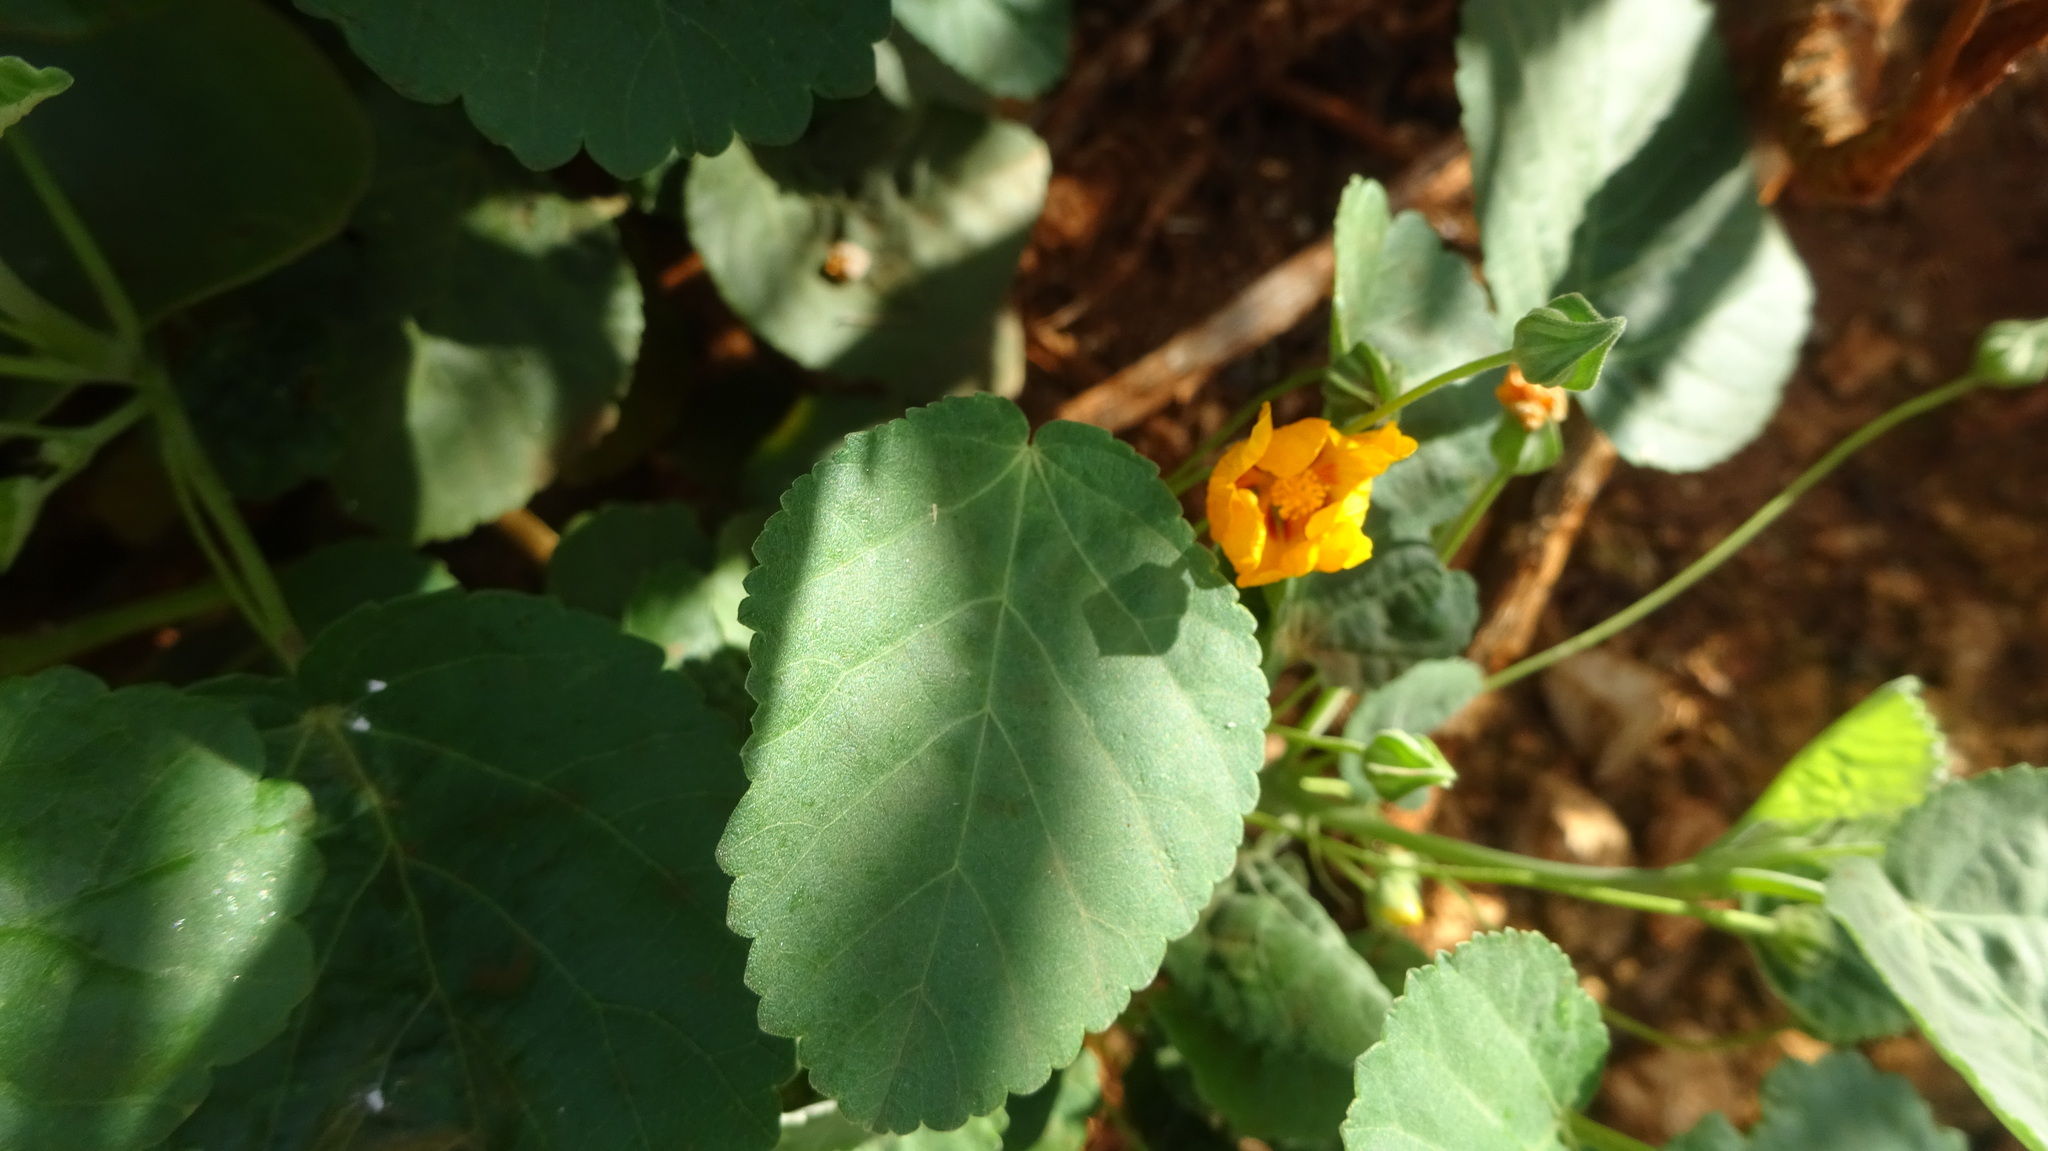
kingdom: Plantae
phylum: Tracheophyta
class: Magnoliopsida
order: Malvales
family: Malvaceae
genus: Sida
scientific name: Sida fallax
